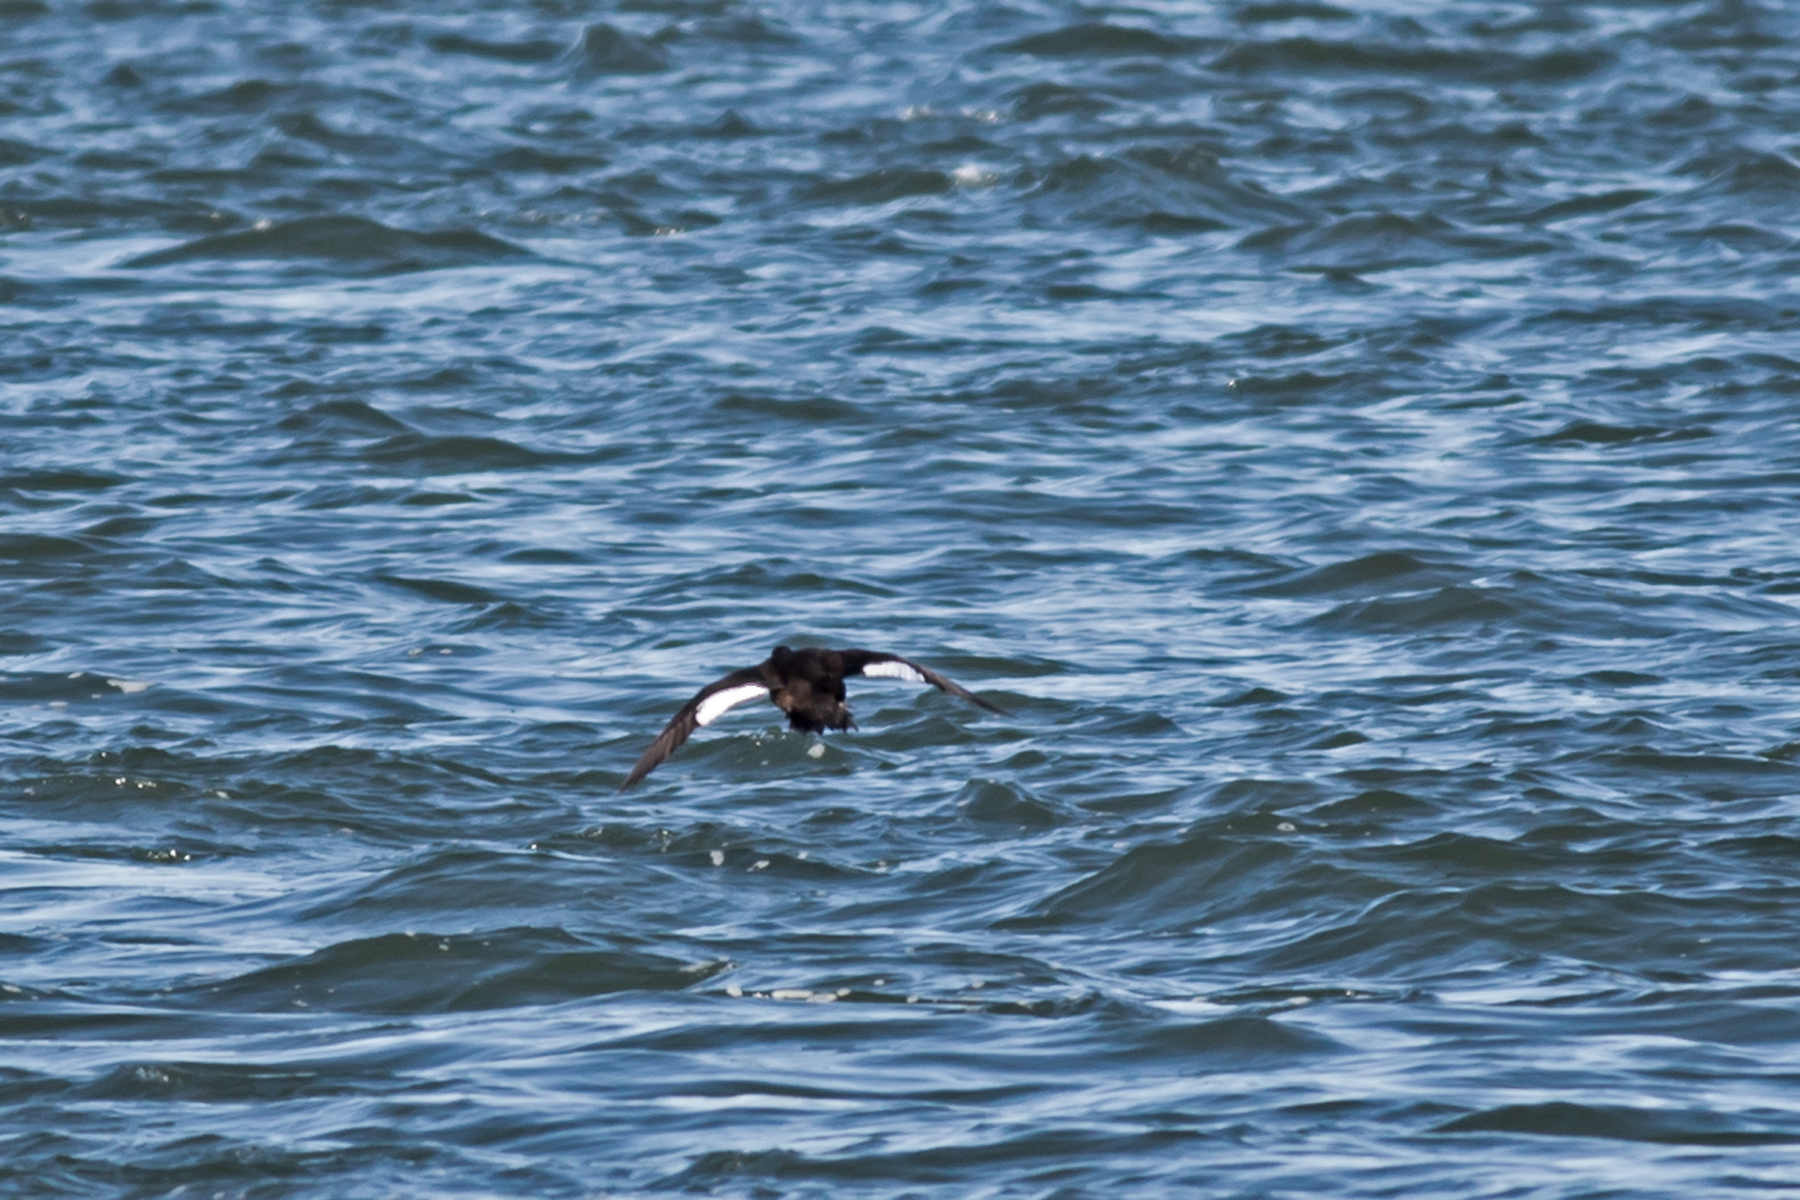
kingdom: Animalia
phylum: Chordata
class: Aves
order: Anseriformes
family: Anatidae
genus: Melanitta
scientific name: Melanitta deglandi
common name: White-winged scoter
